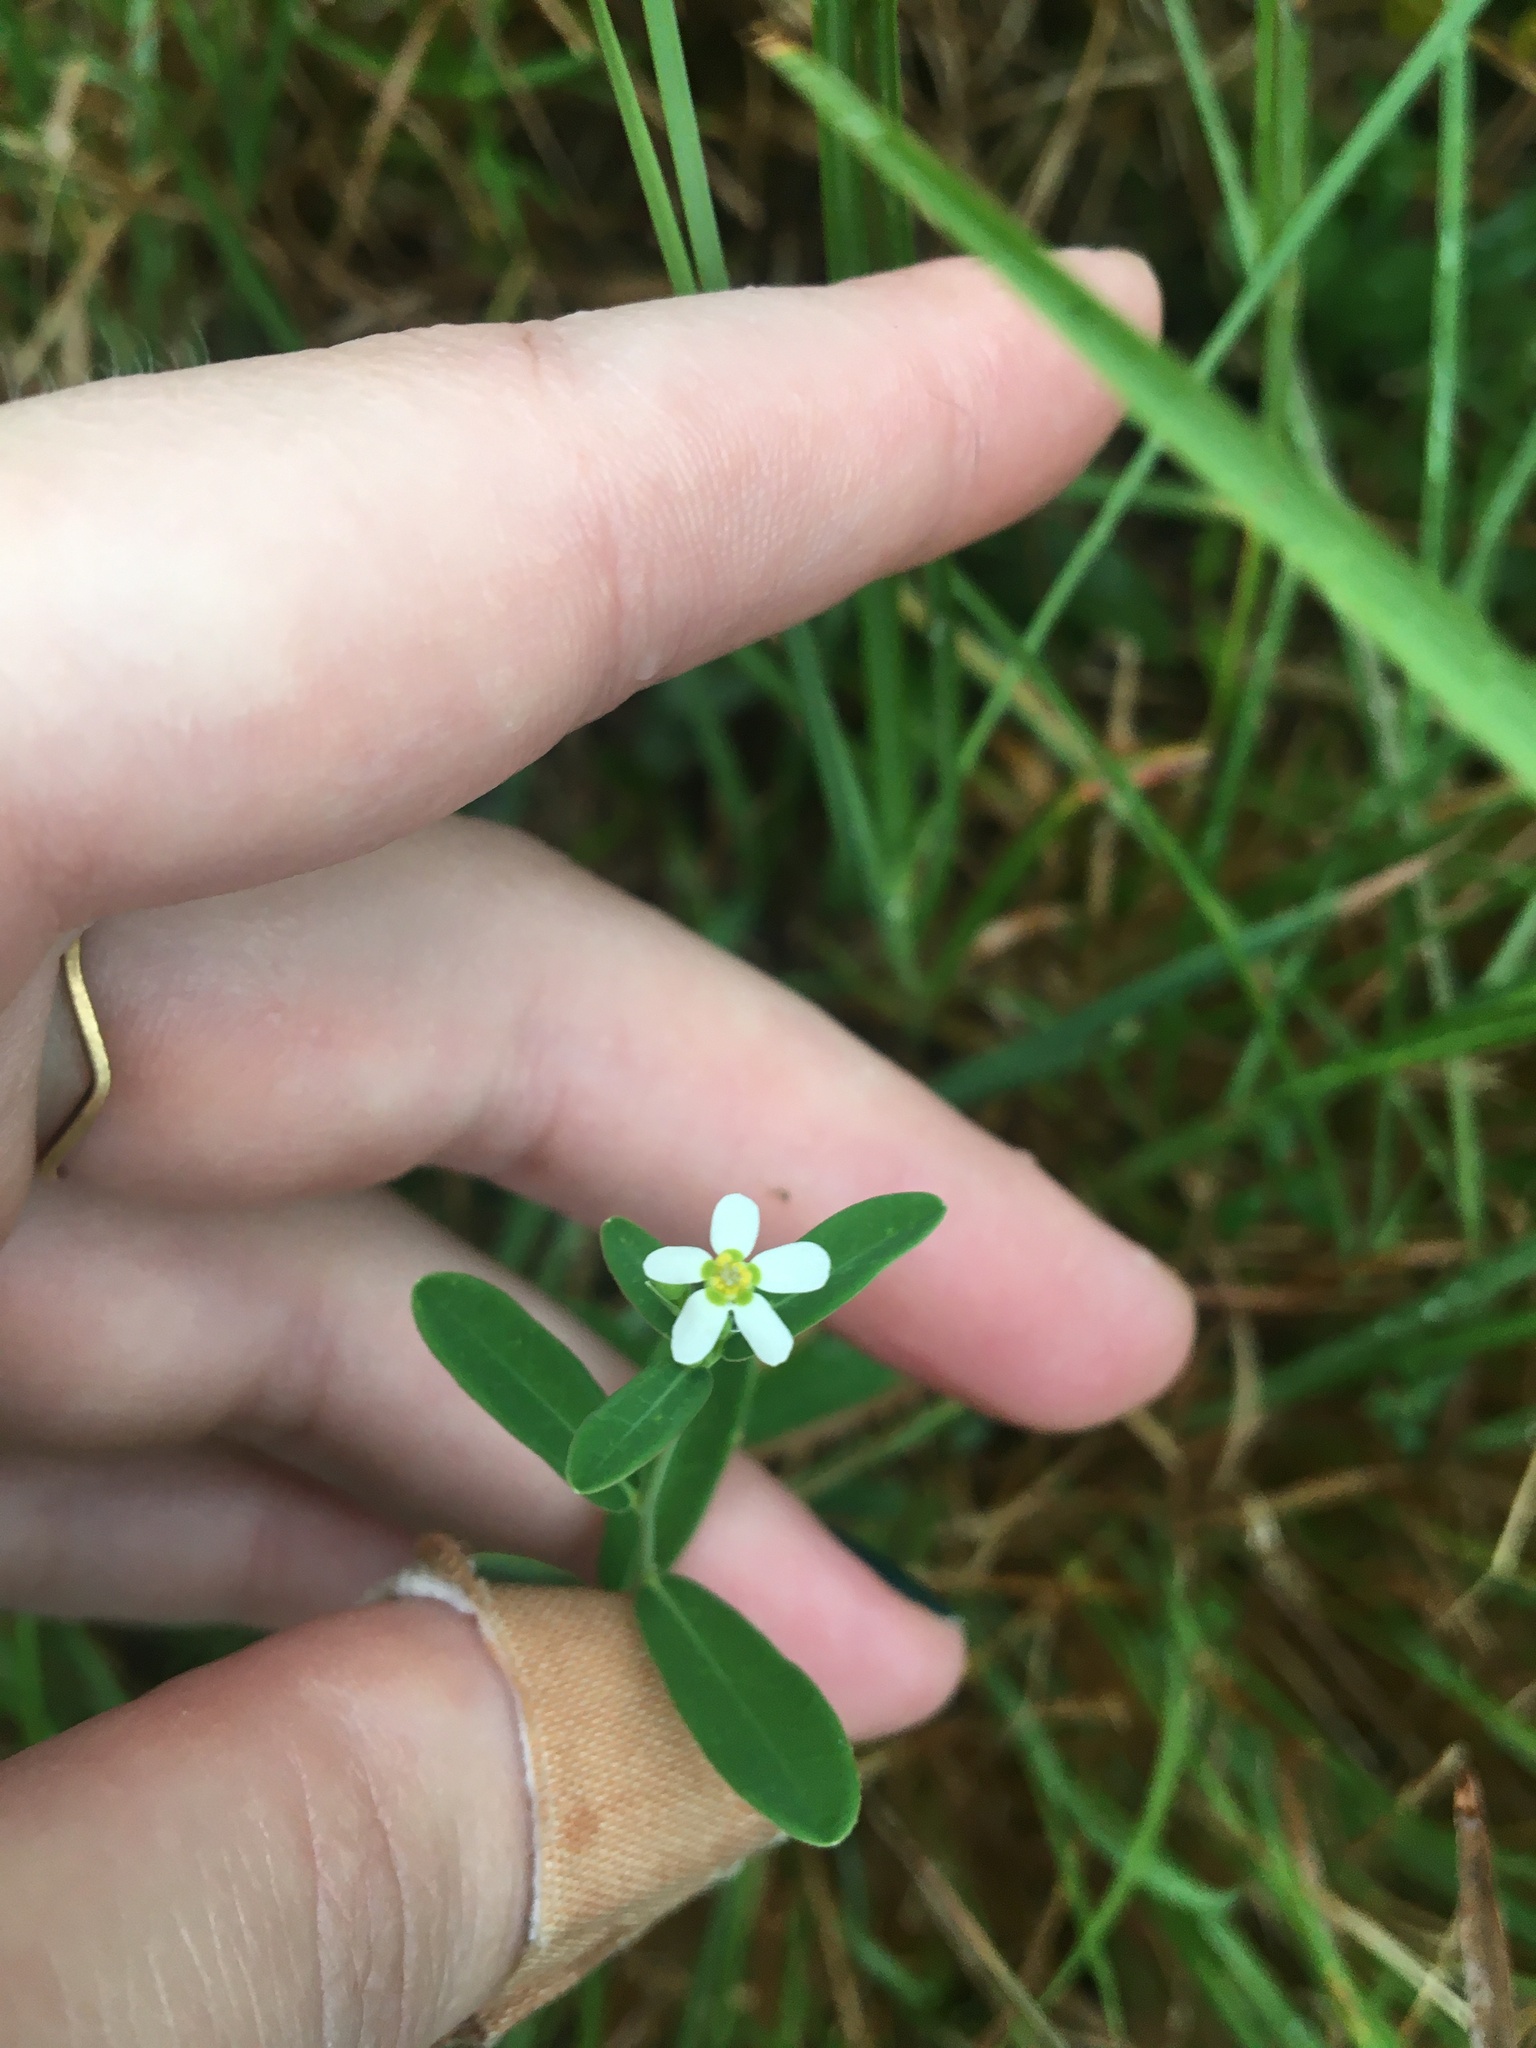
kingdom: Plantae
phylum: Tracheophyta
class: Magnoliopsida
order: Malpighiales
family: Euphorbiaceae
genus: Euphorbia
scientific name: Euphorbia corollata
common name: Flowering spurge
